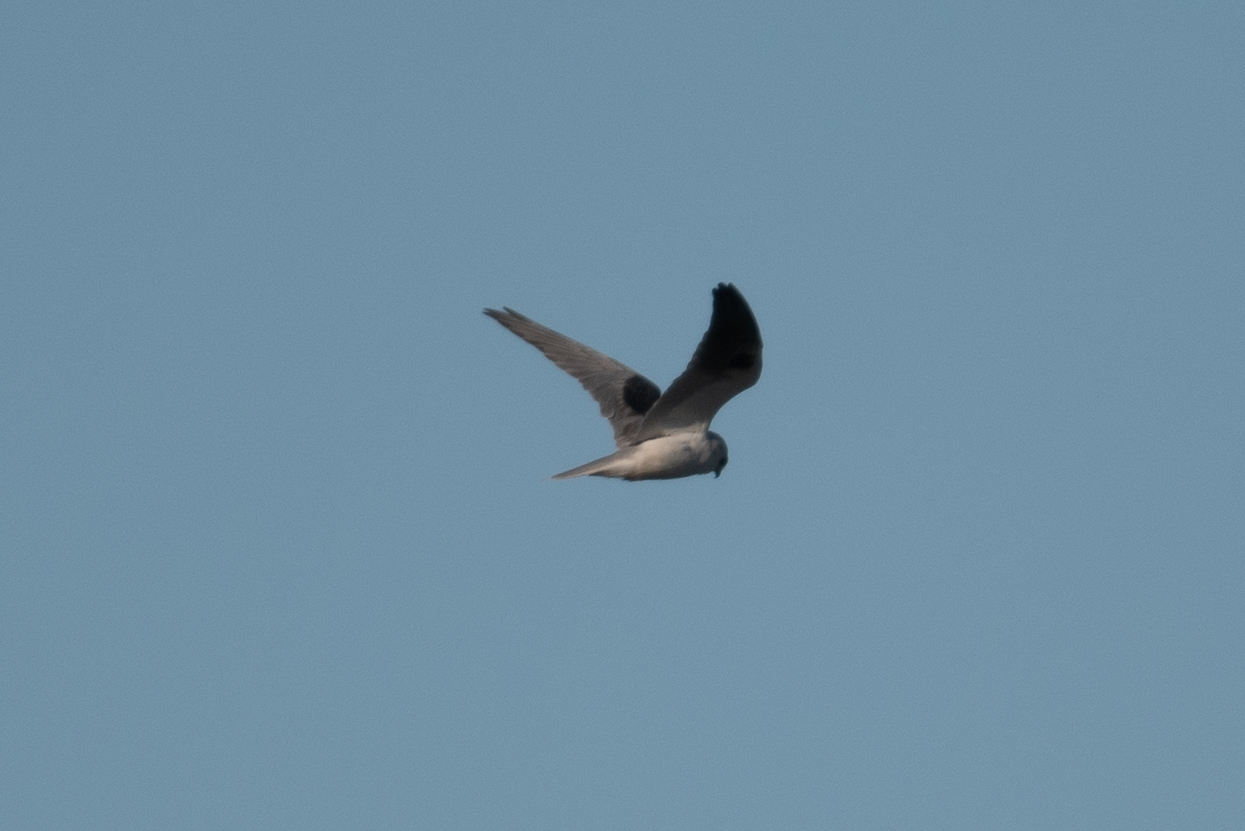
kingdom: Animalia
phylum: Chordata
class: Aves
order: Accipitriformes
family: Accipitridae
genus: Elanus
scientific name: Elanus leucurus
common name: White-tailed kite
